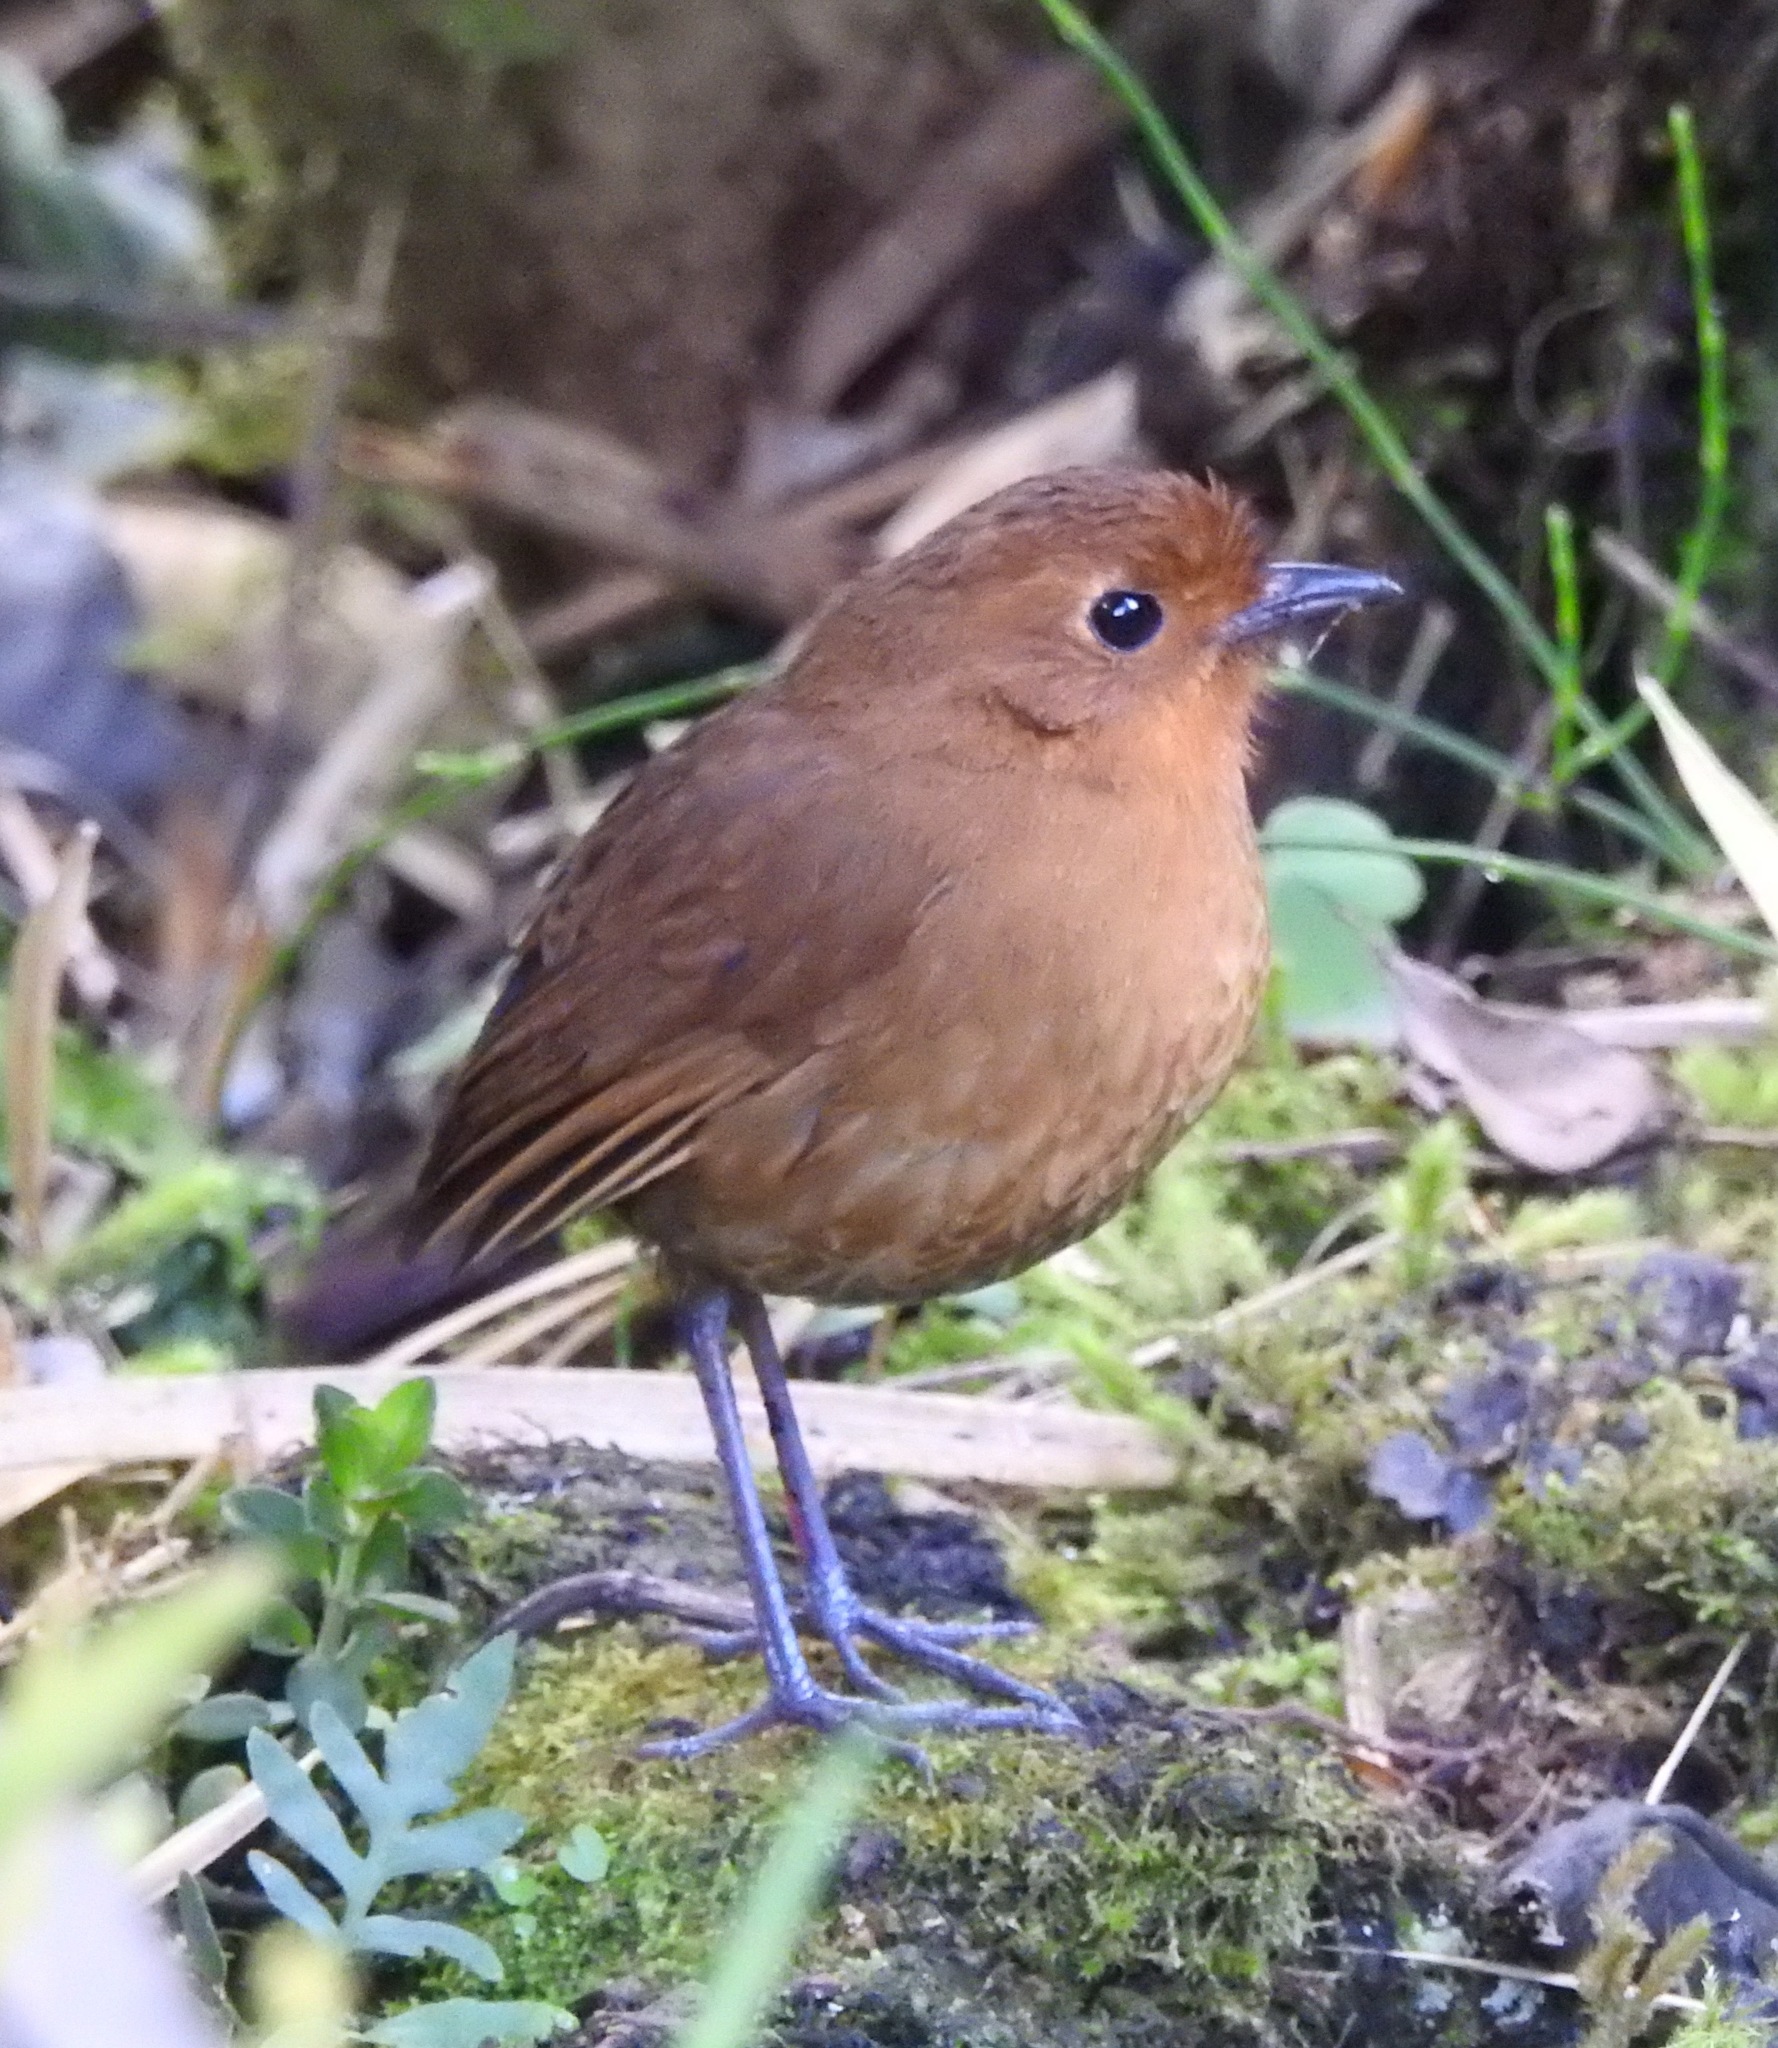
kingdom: Animalia
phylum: Chordata
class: Aves
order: Passeriformes
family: Grallariidae
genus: Grallaria
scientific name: Grallaria saturata
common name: Equatorial antpitta
